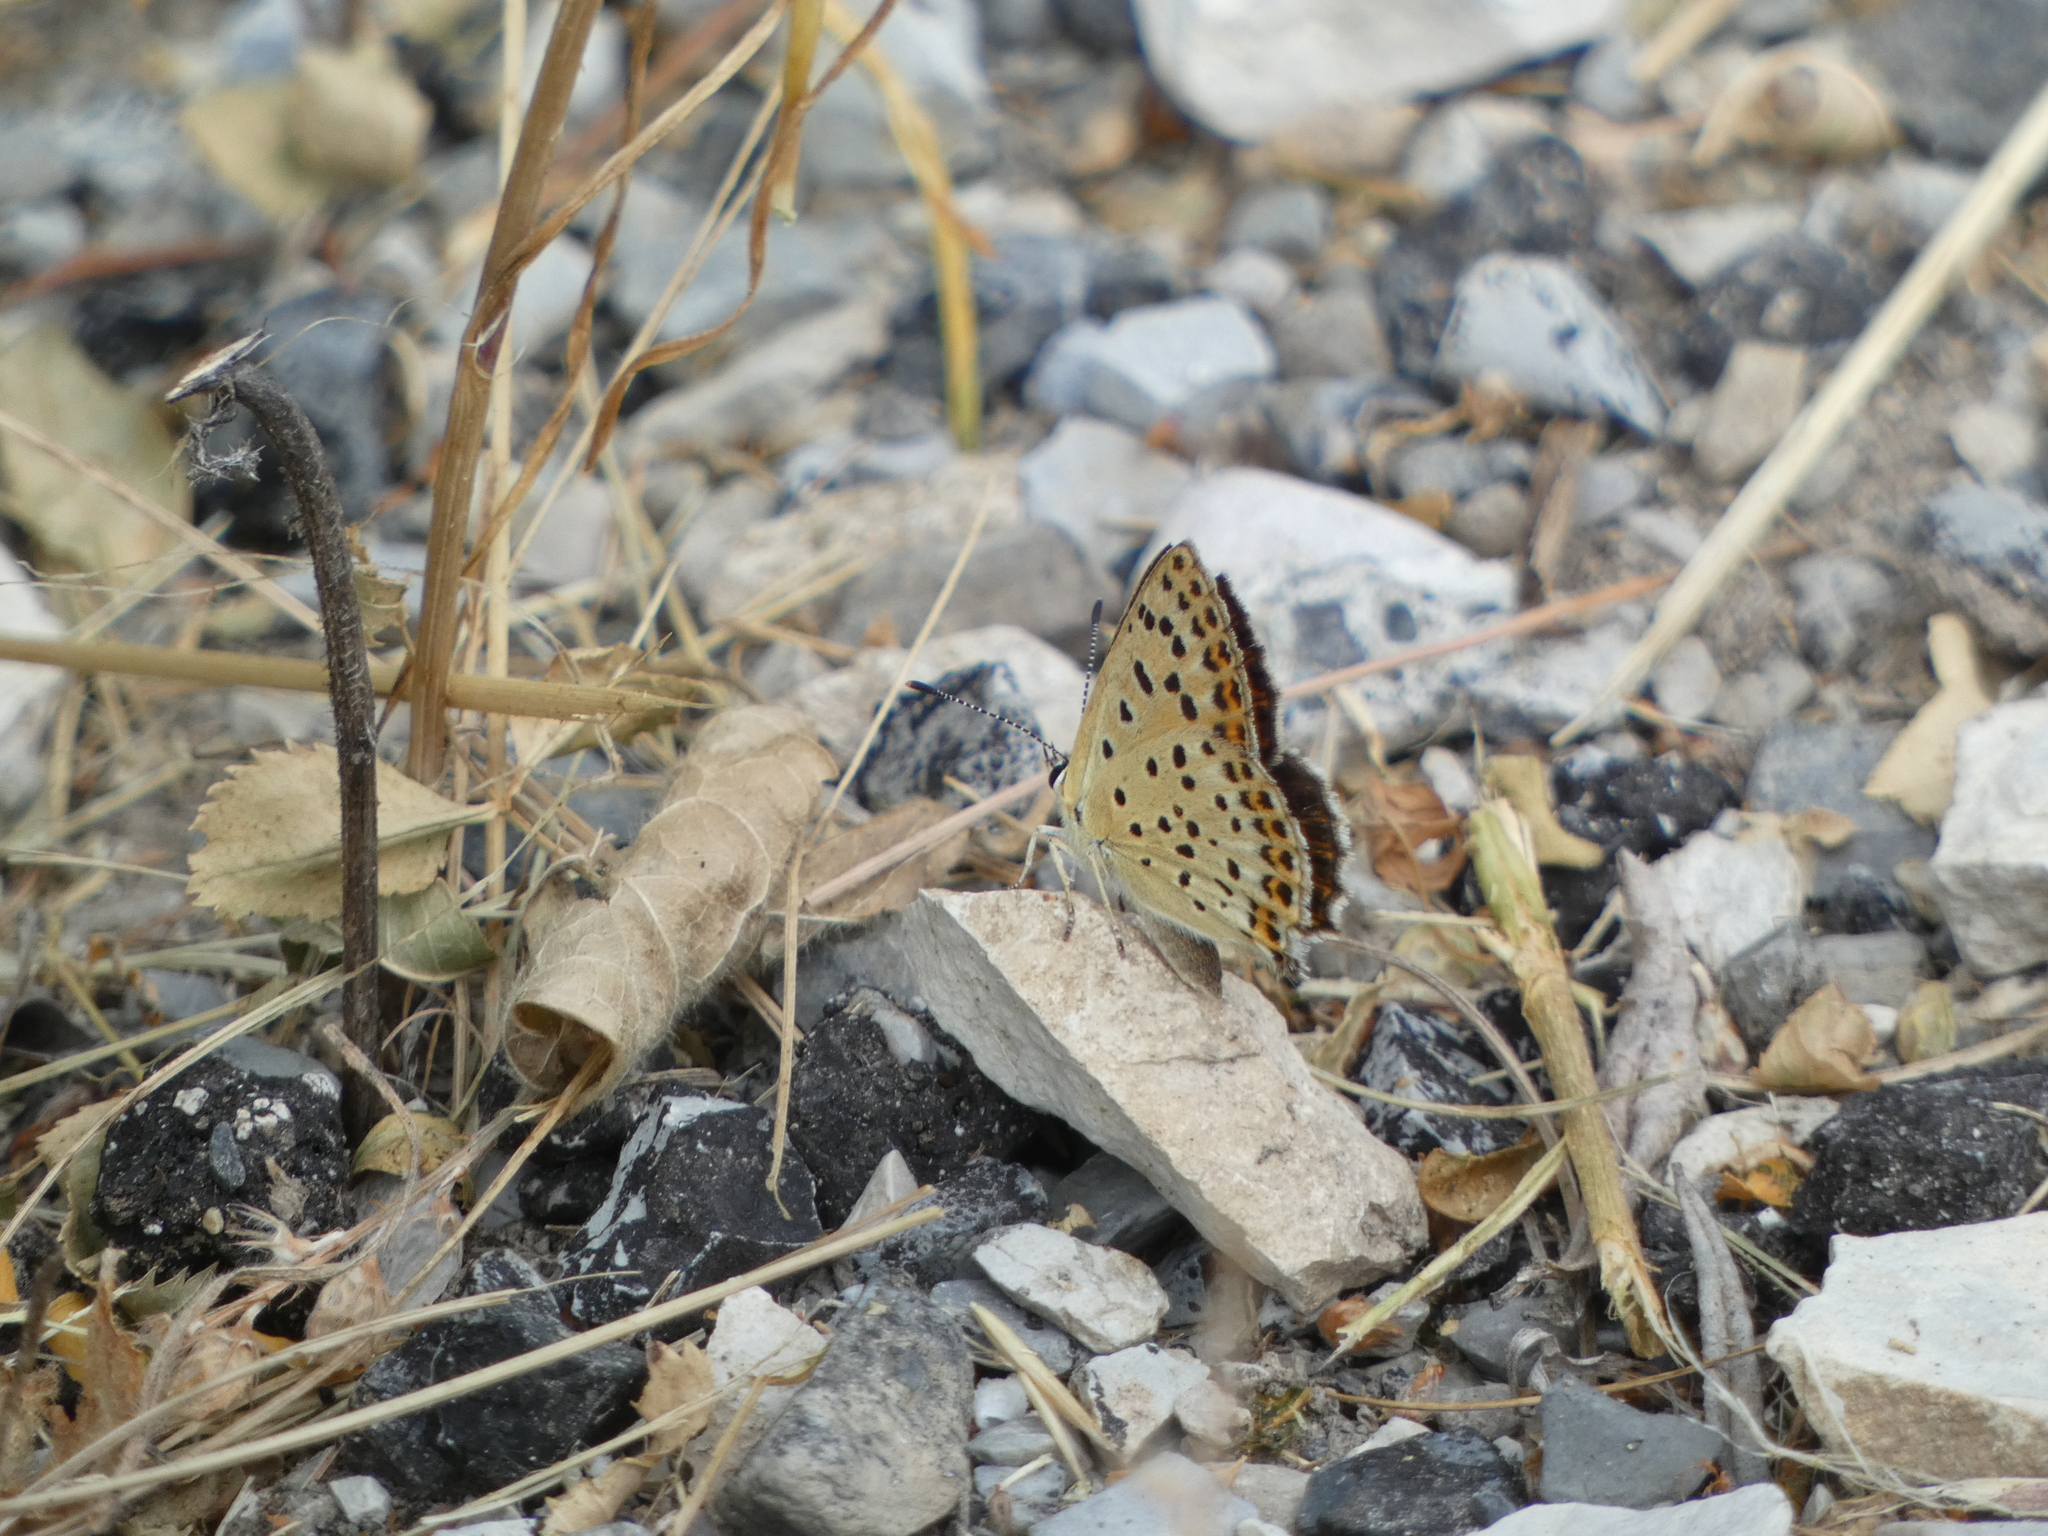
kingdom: Animalia
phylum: Arthropoda
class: Insecta
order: Lepidoptera
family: Lycaenidae
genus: Loweia
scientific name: Loweia tityrus
